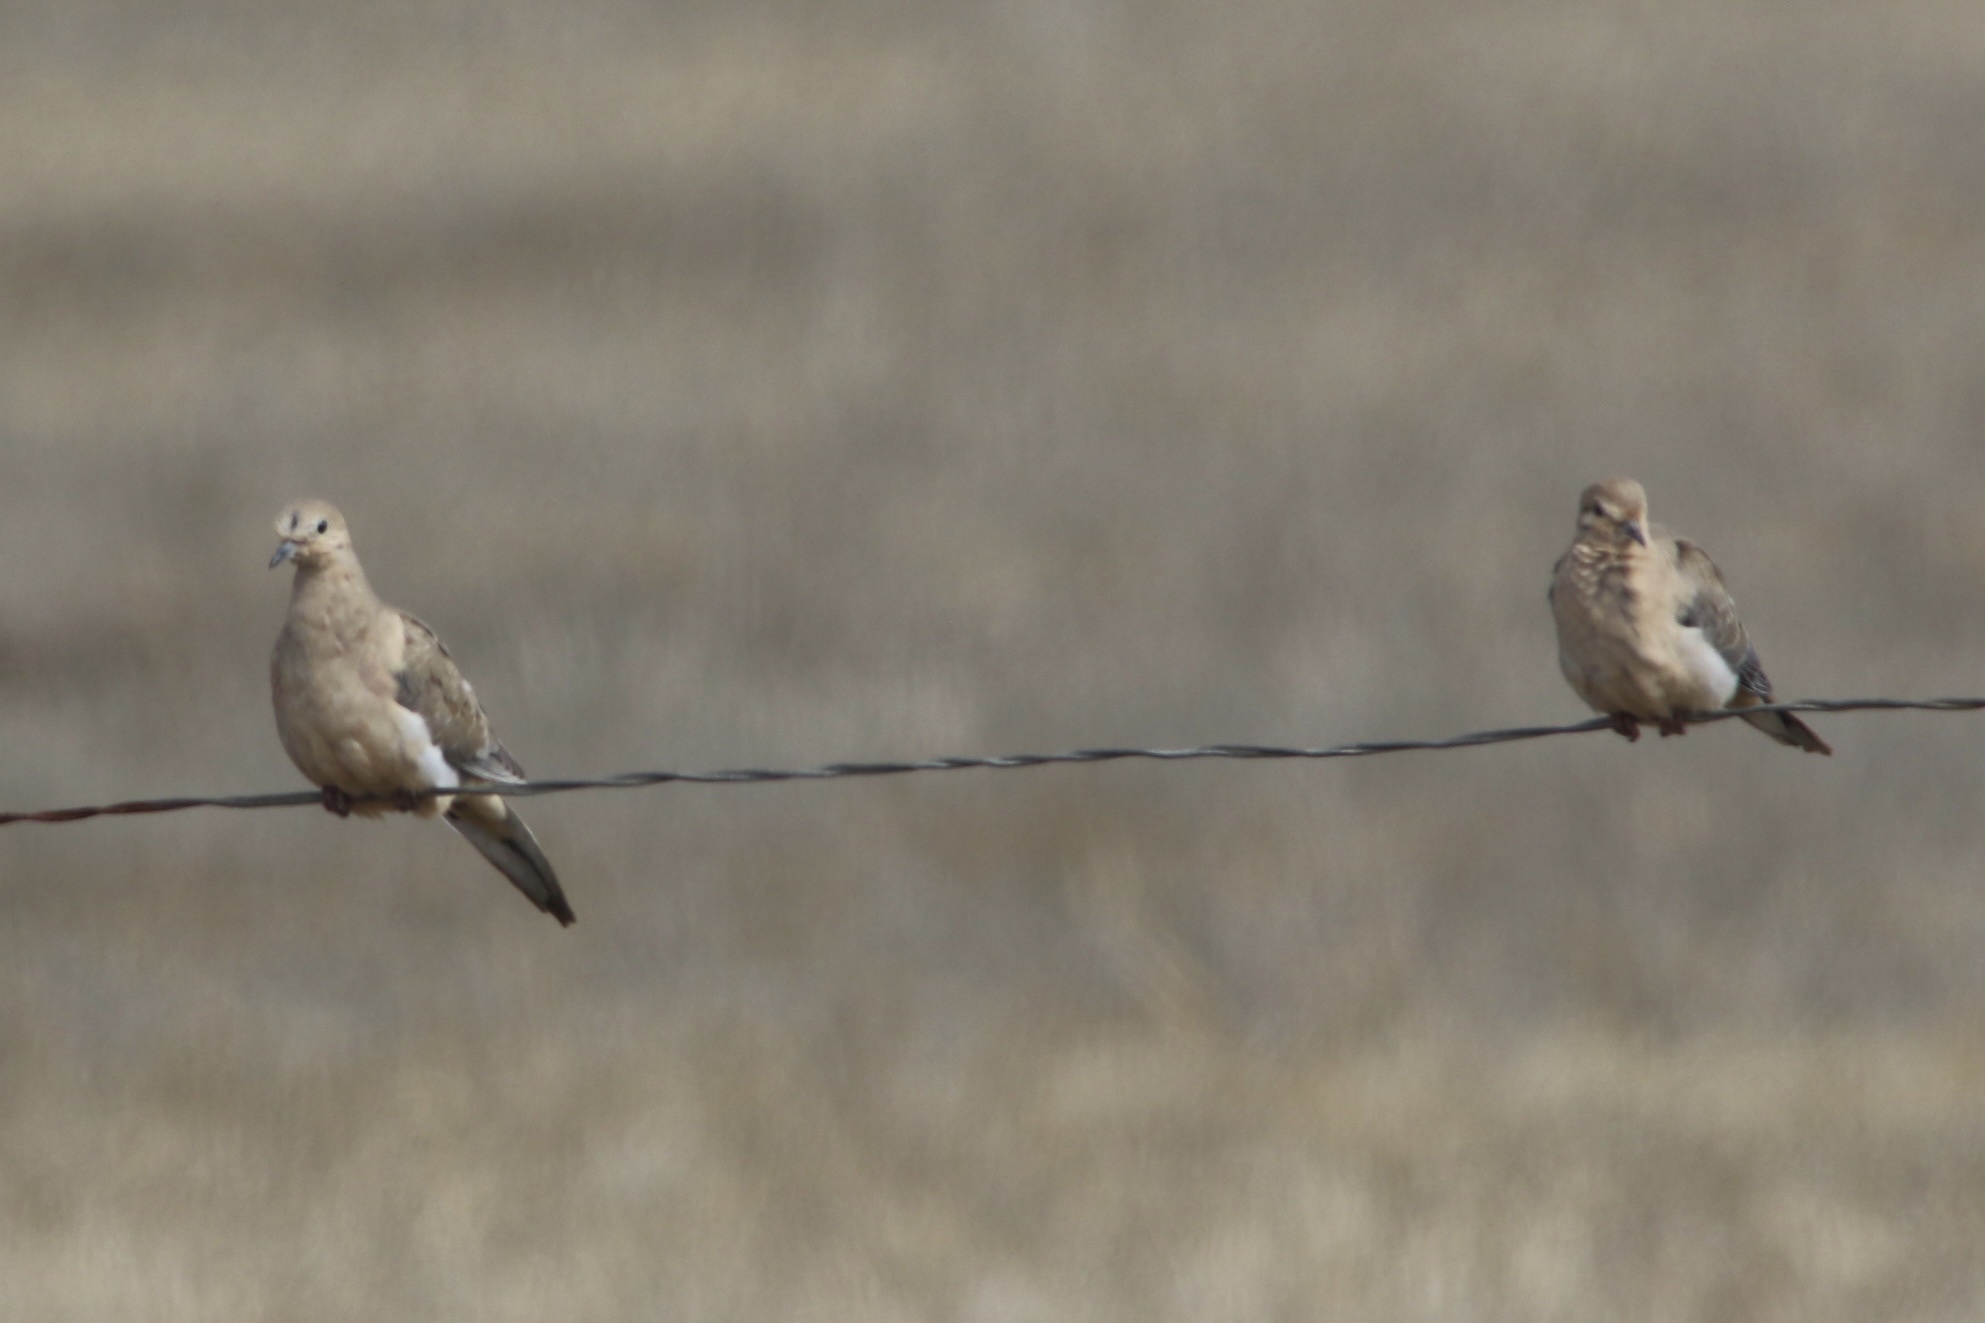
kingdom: Animalia
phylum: Chordata
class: Aves
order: Columbiformes
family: Columbidae
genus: Zenaida
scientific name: Zenaida macroura
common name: Mourning dove
